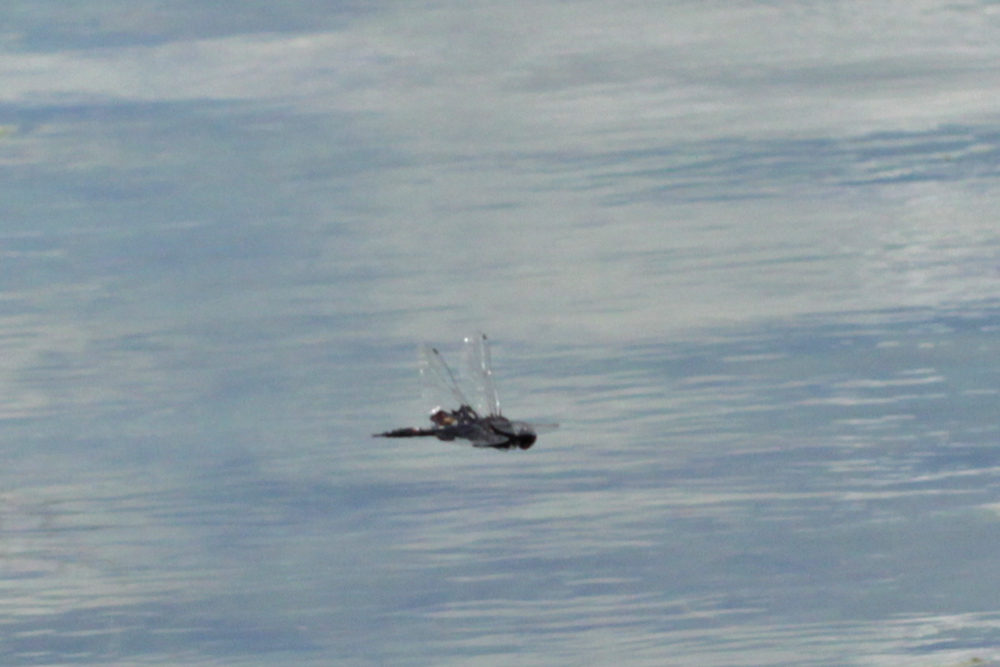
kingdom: Animalia
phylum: Arthropoda
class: Insecta
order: Odonata
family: Libellulidae
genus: Tramea
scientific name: Tramea lacerata
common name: Black saddlebags
